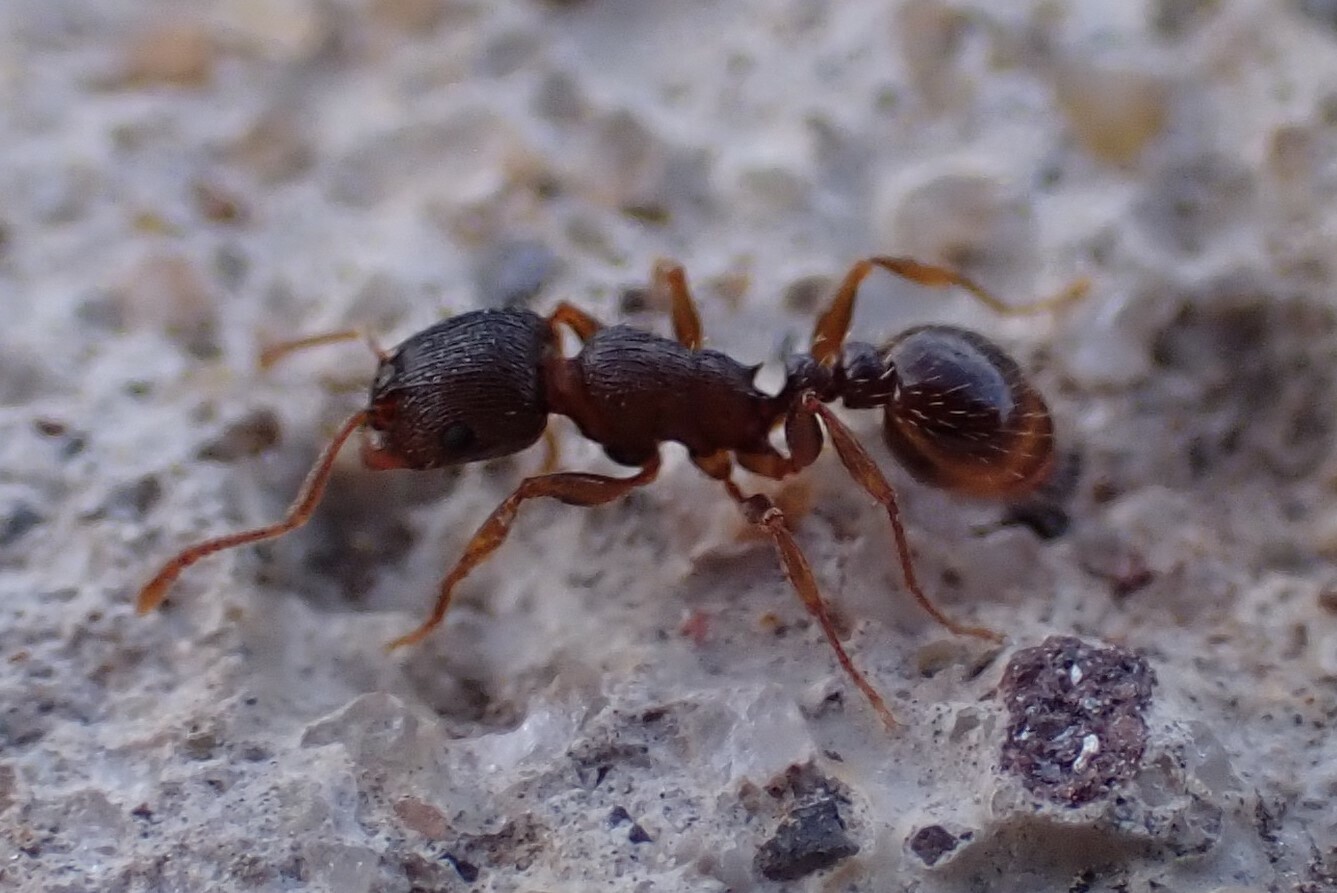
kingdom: Animalia
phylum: Arthropoda
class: Insecta
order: Hymenoptera
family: Formicidae
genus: Tetramorium
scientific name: Tetramorium immigrans
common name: Pavement ant
